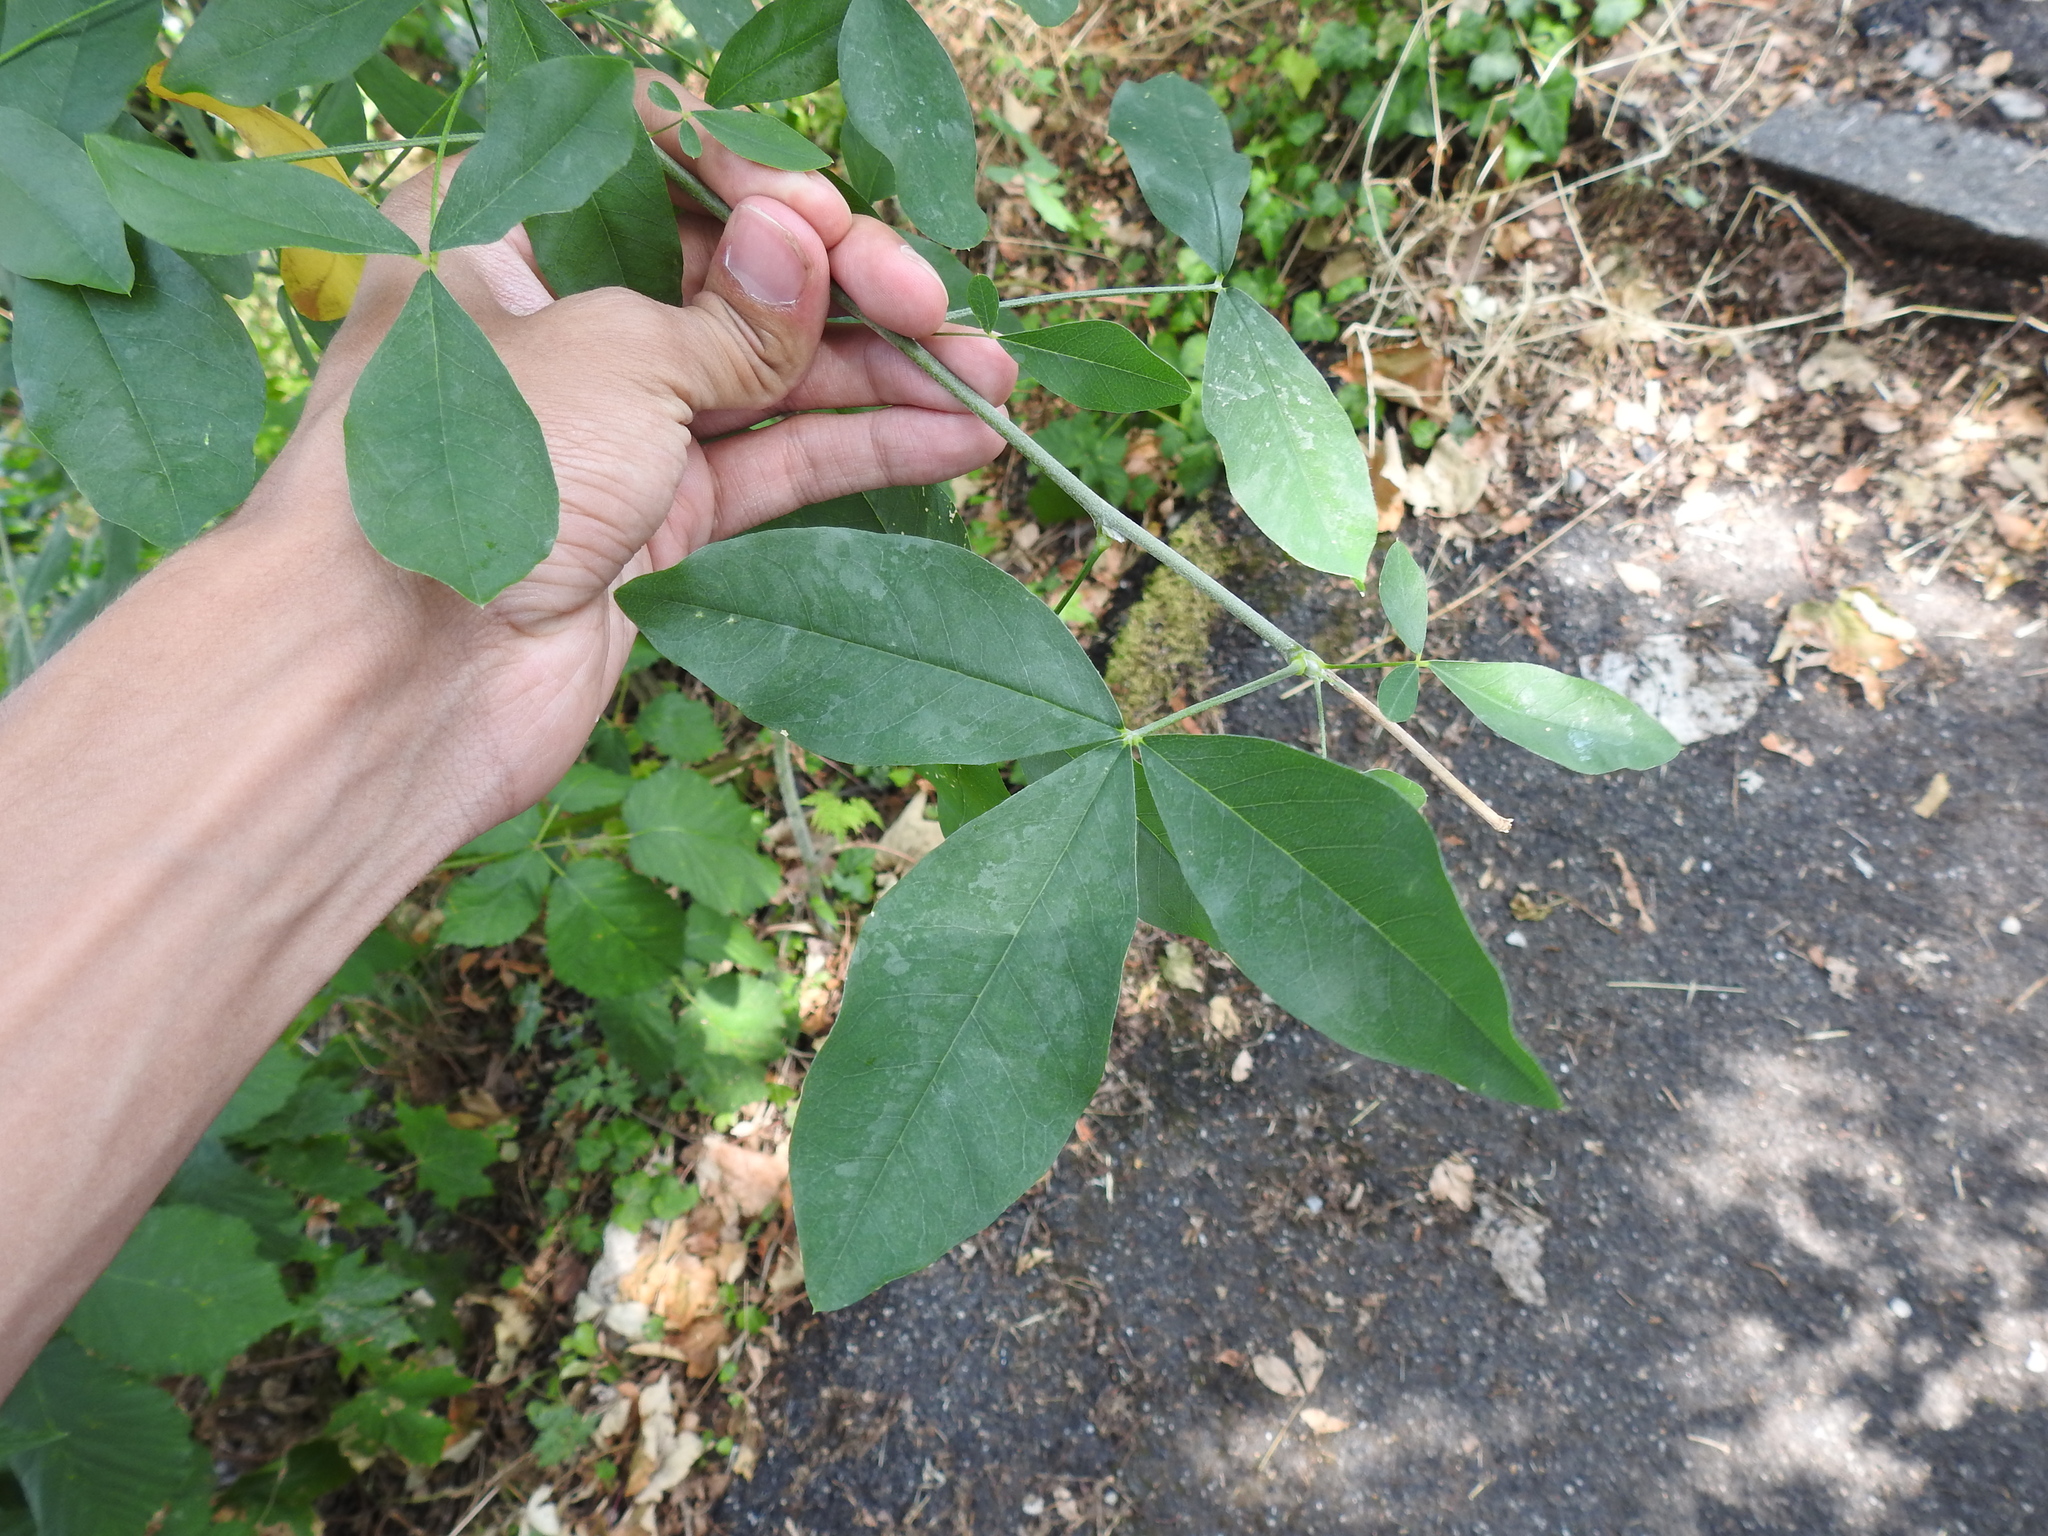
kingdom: Plantae
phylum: Tracheophyta
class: Magnoliopsida
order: Fabales
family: Fabaceae
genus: Laburnum
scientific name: Laburnum anagyroides
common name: Laburnum
